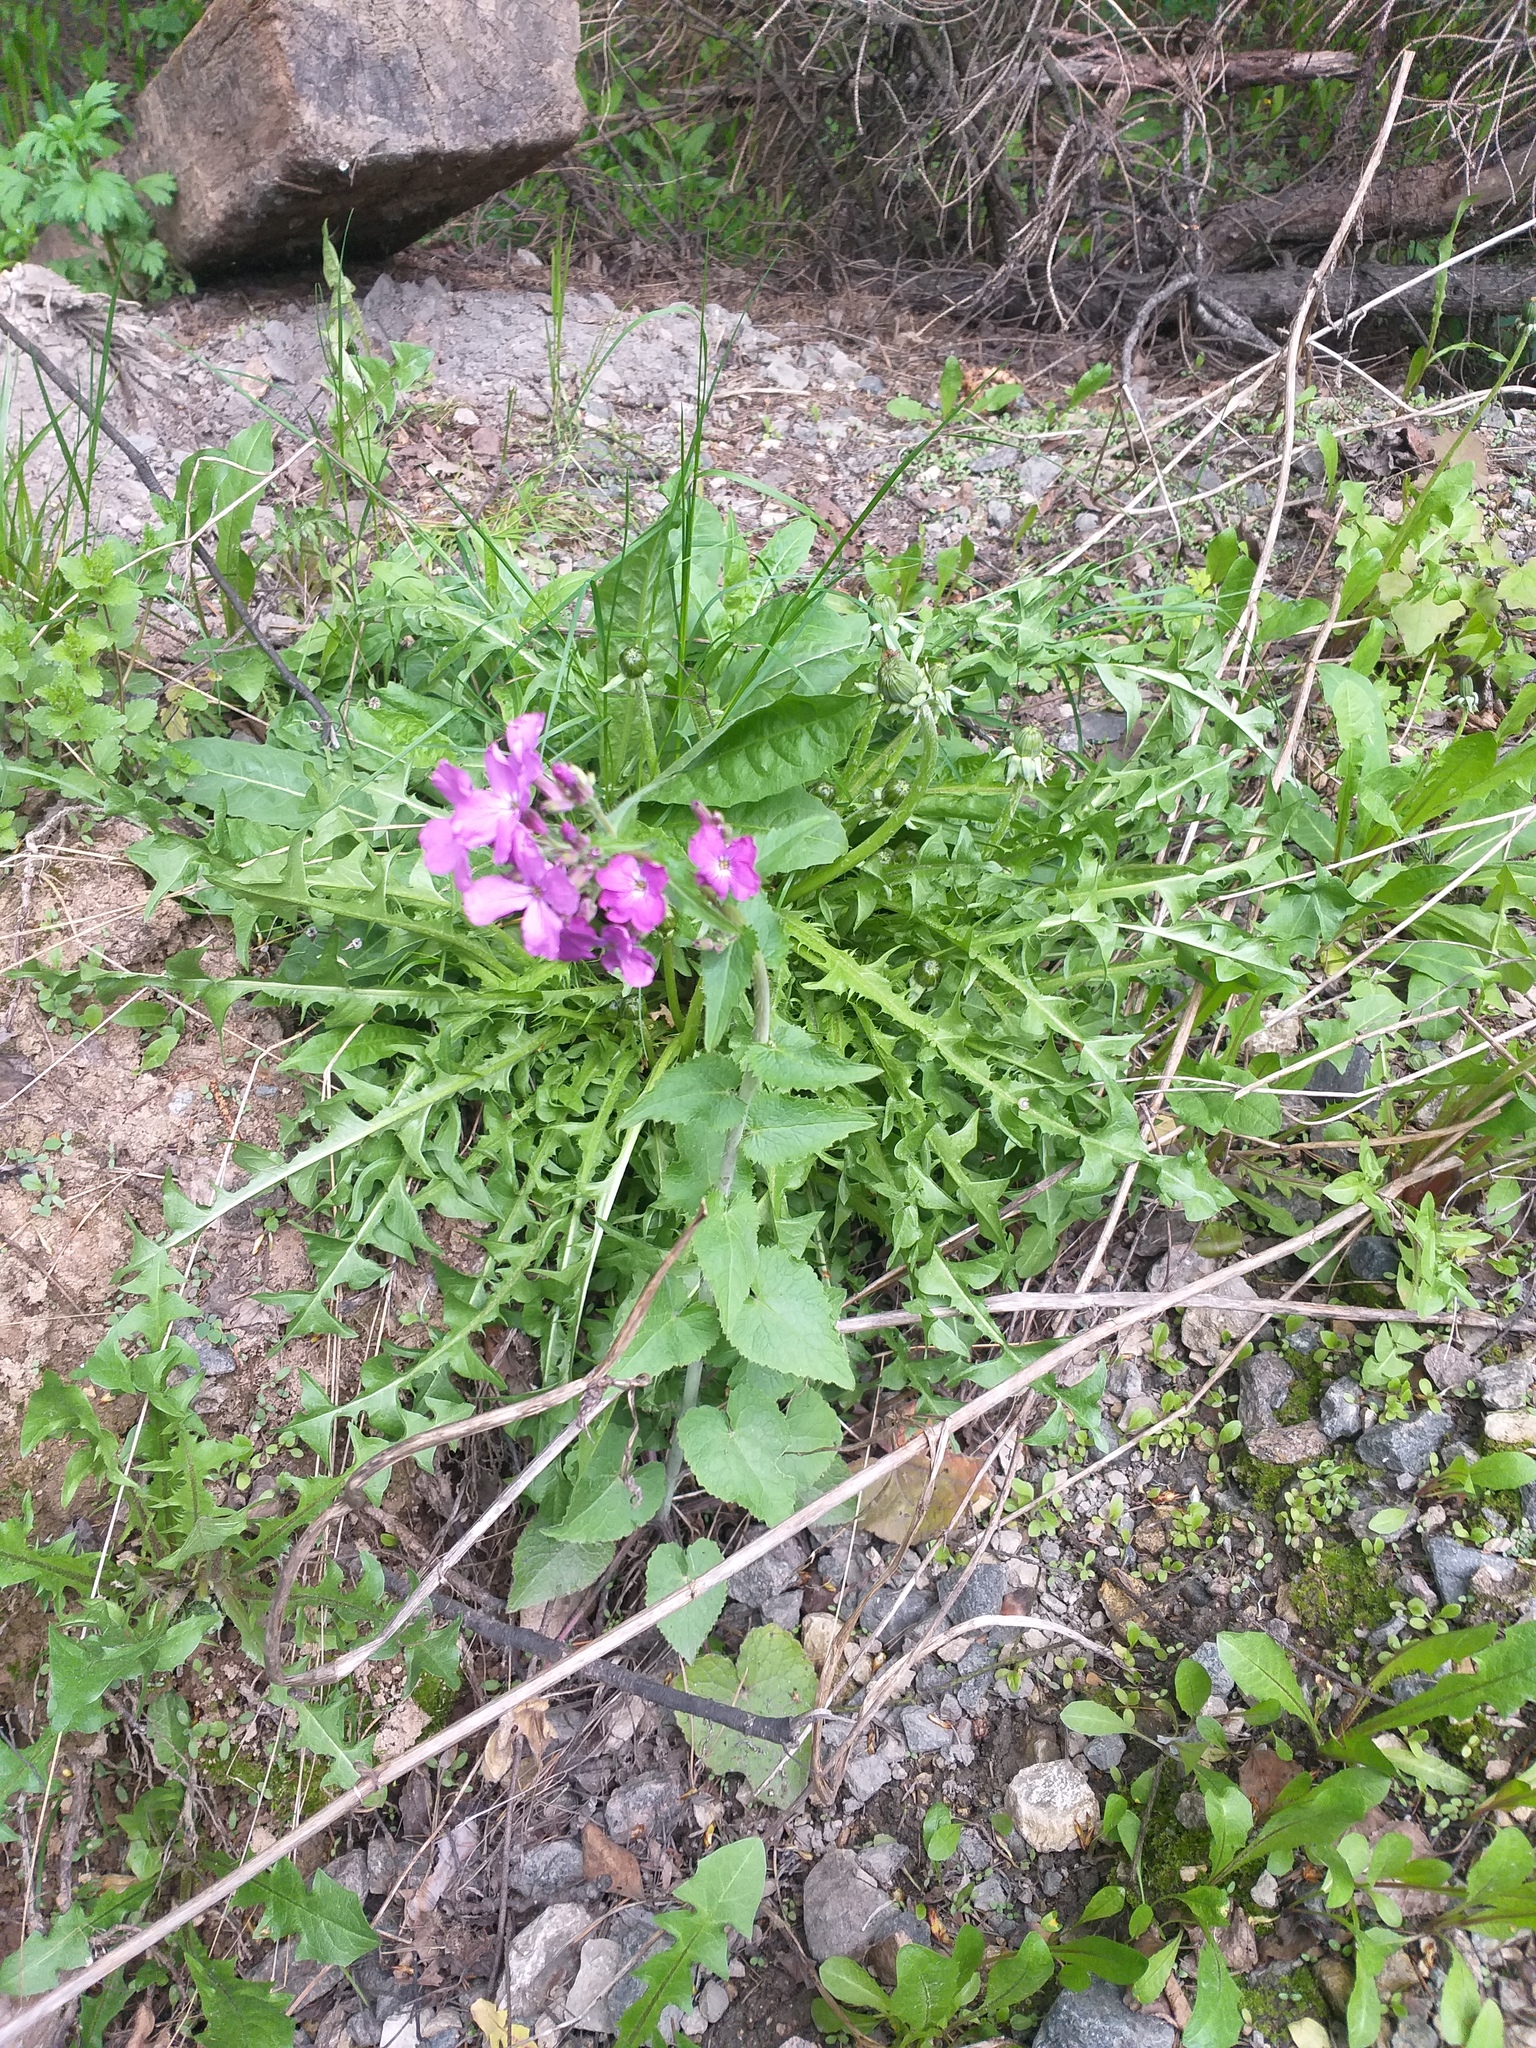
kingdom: Plantae
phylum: Tracheophyta
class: Magnoliopsida
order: Brassicales
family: Brassicaceae
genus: Lunaria
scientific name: Lunaria annua
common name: Honesty
